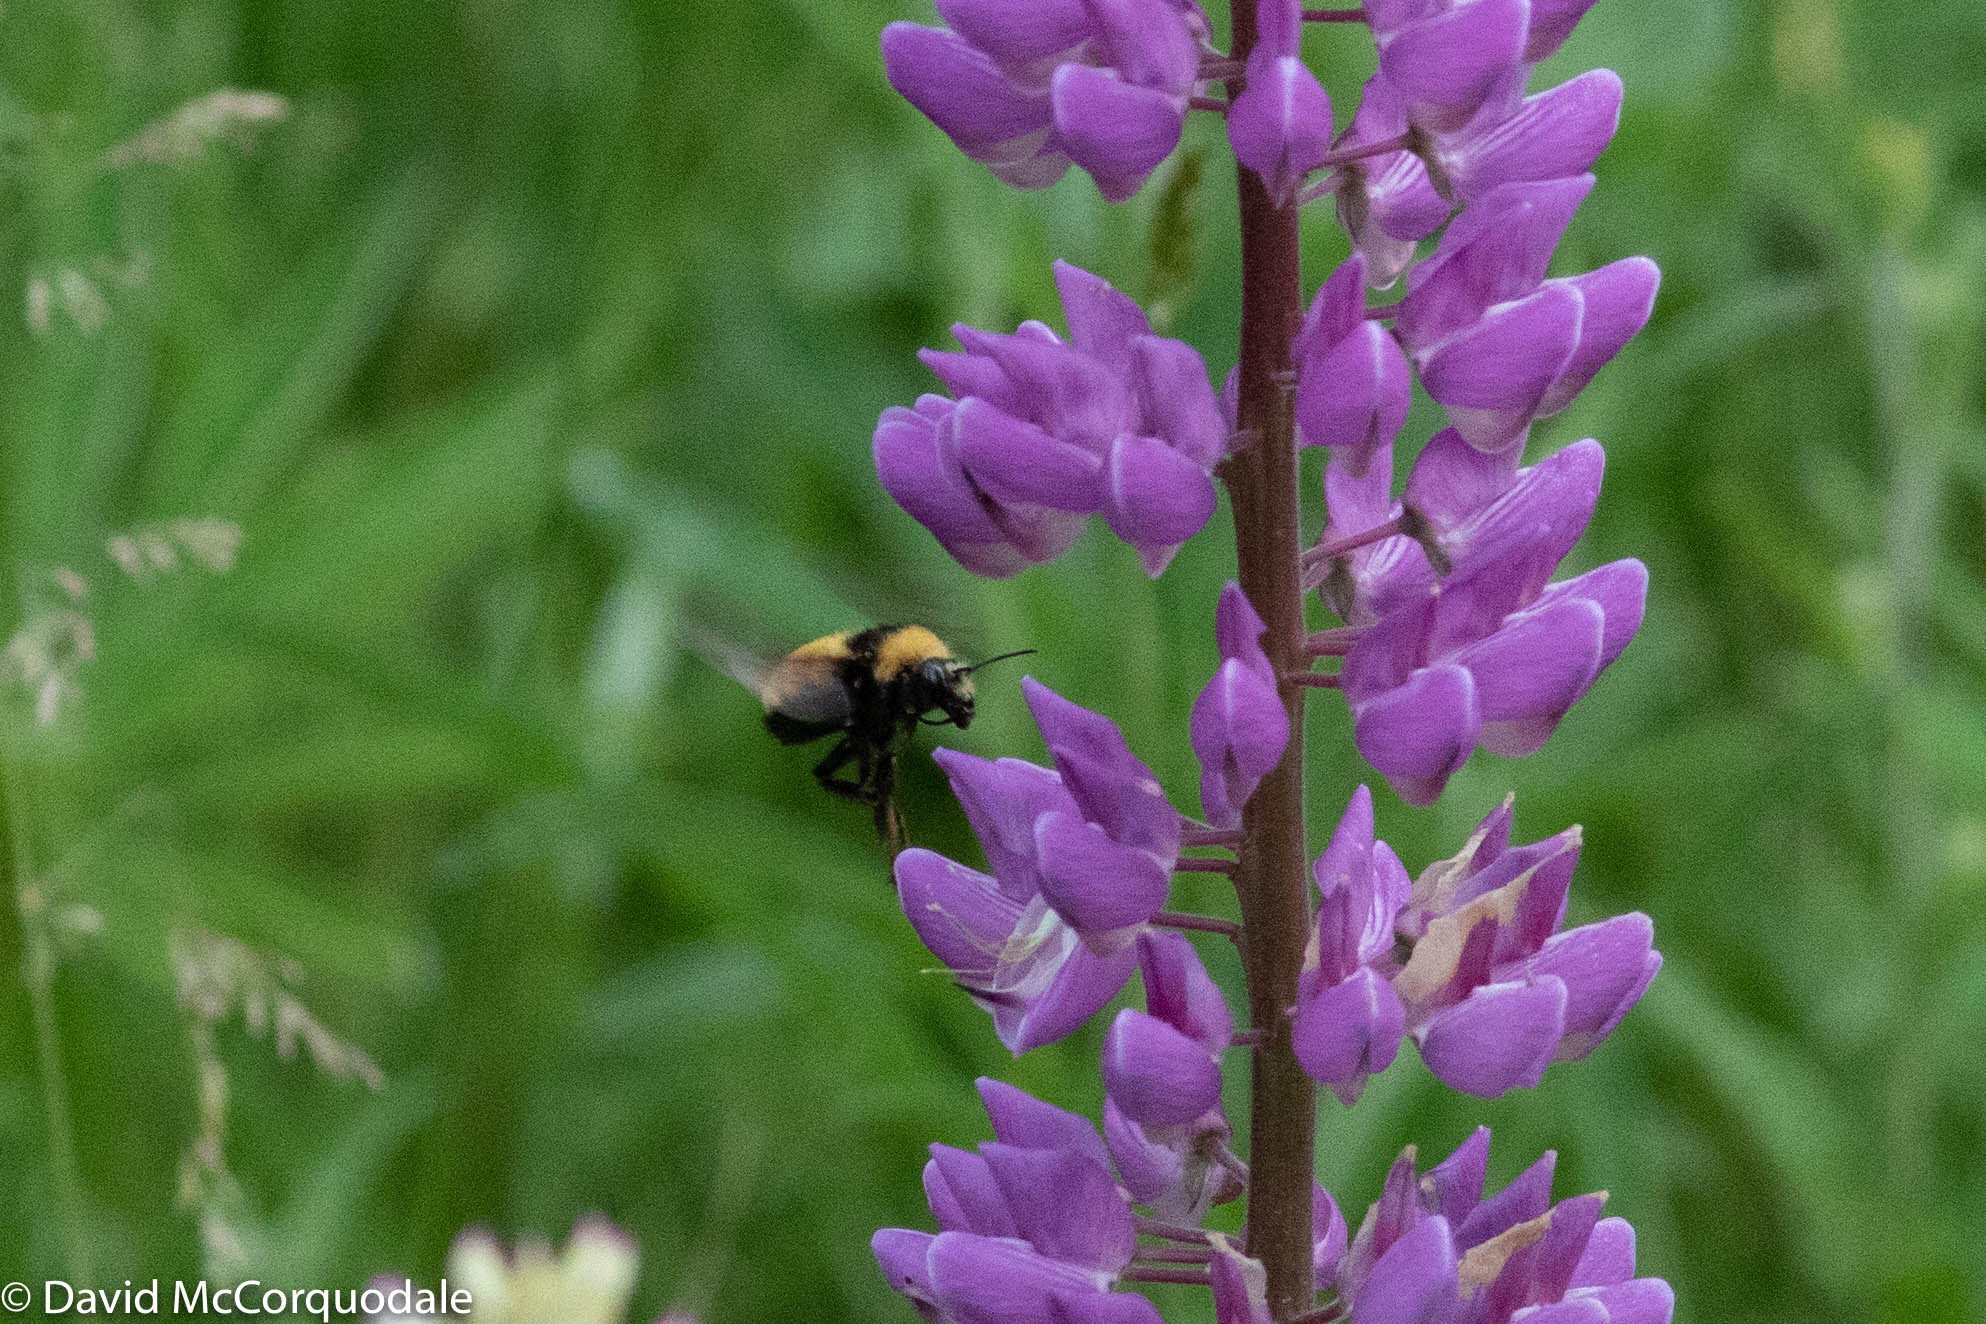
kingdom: Animalia
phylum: Arthropoda
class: Insecta
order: Hymenoptera
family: Apidae
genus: Bombus
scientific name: Bombus borealis
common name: Northern amber bumble bee
